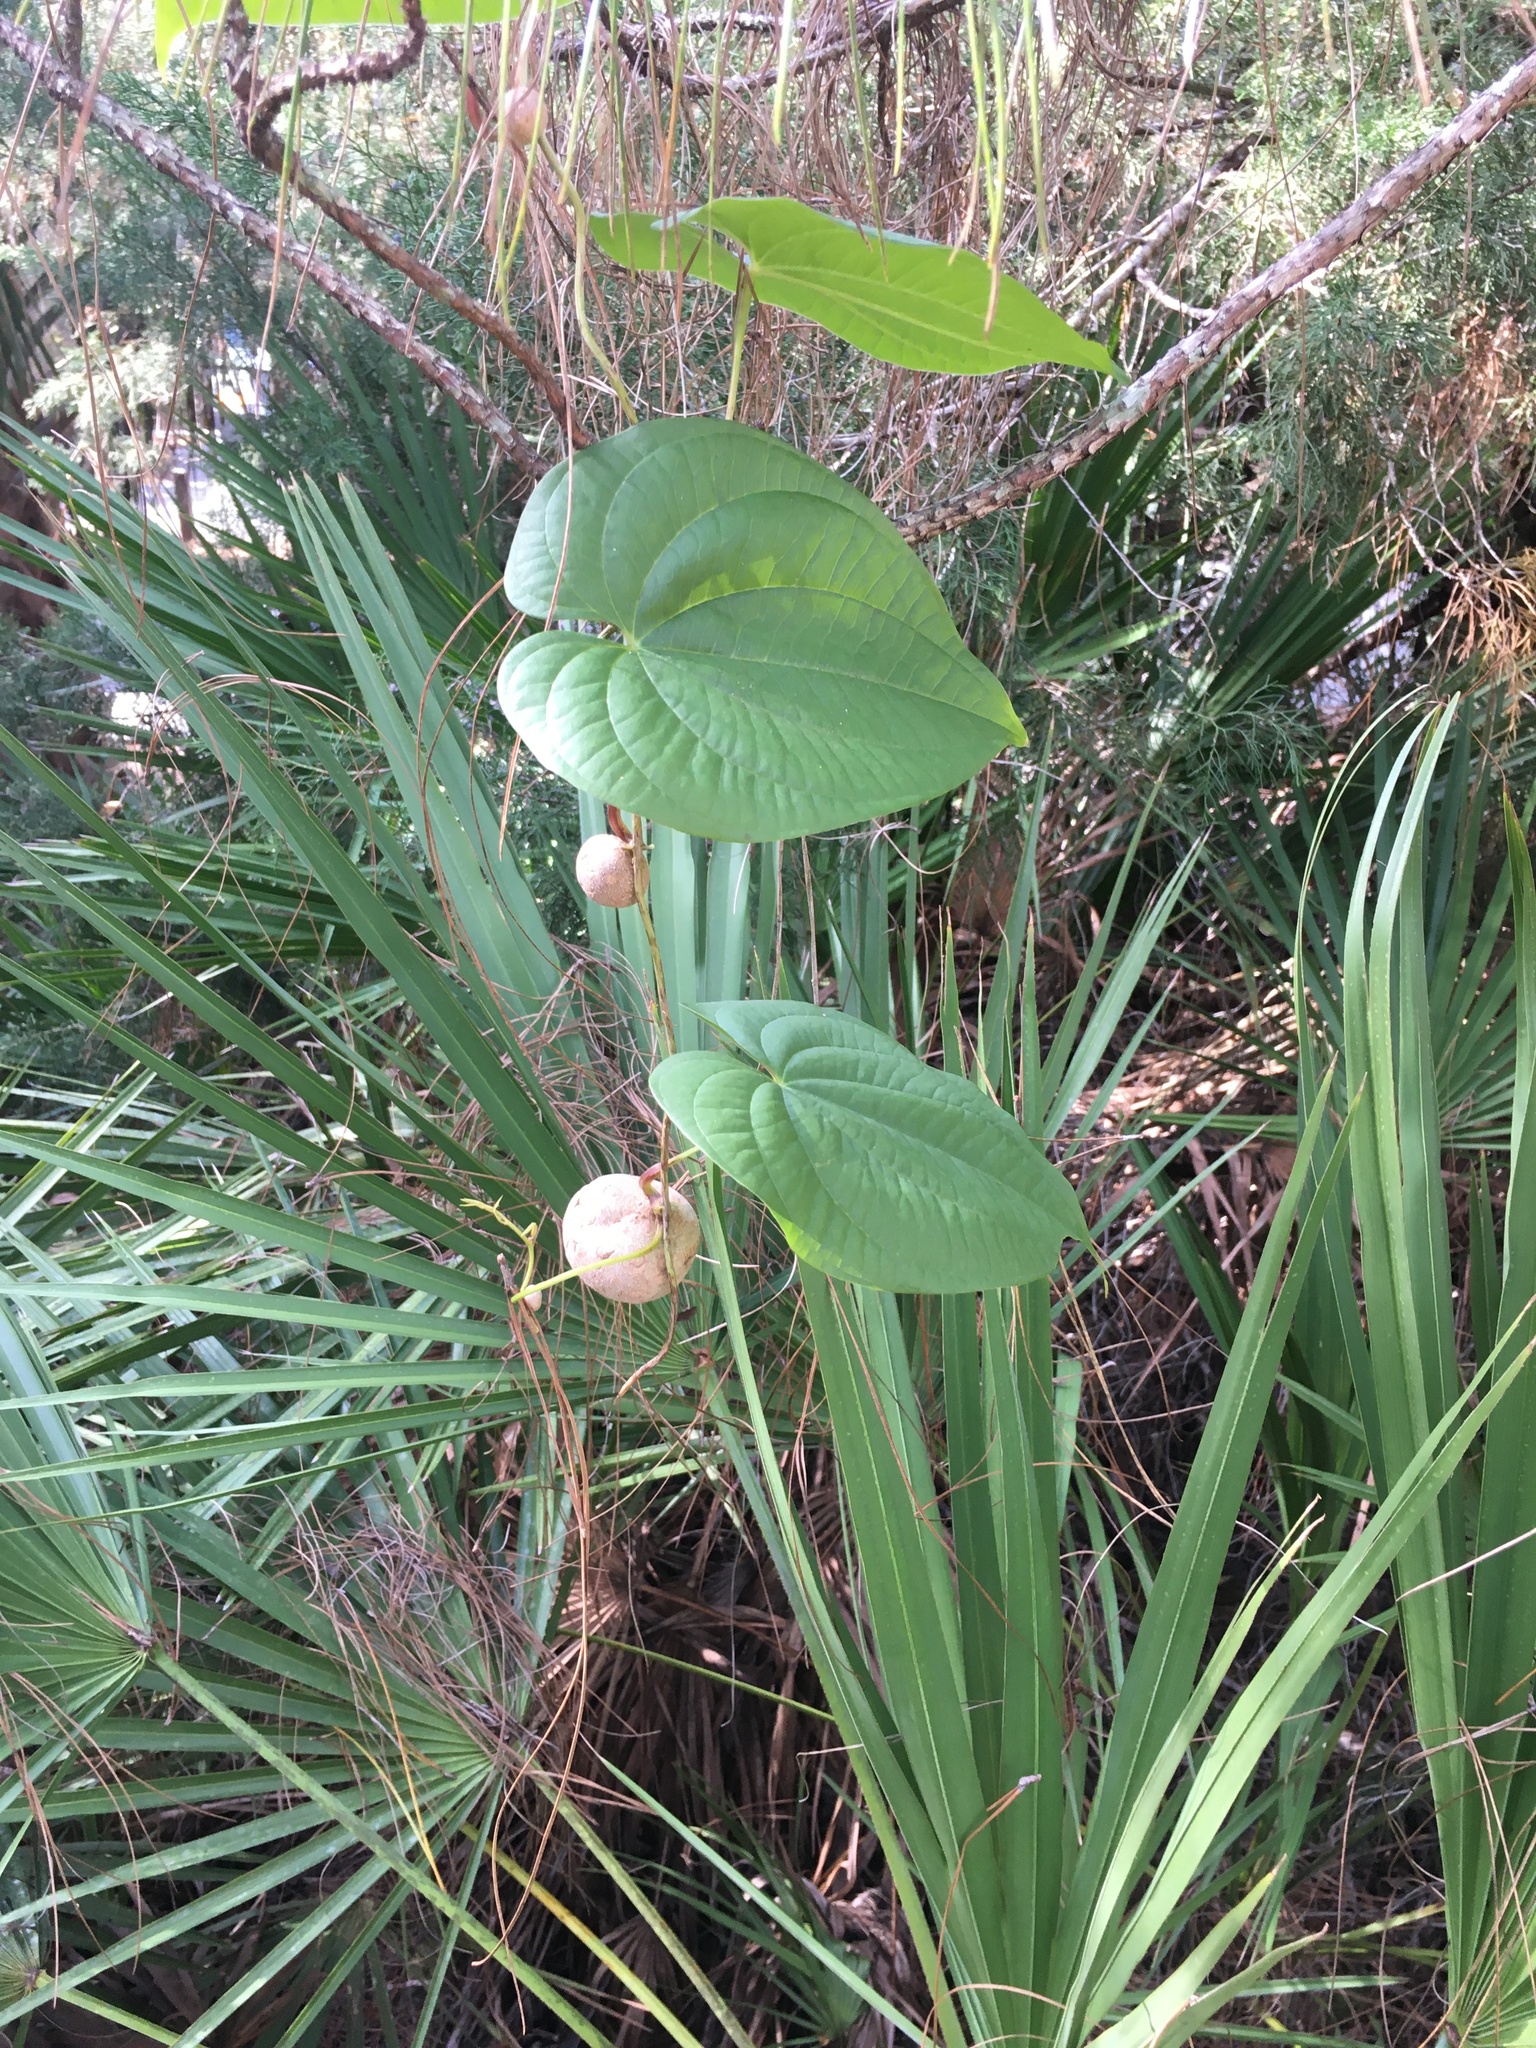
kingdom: Plantae
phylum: Tracheophyta
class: Liliopsida
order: Dioscoreales
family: Dioscoreaceae
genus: Dioscorea
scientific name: Dioscorea bulbifera
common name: Air yam
